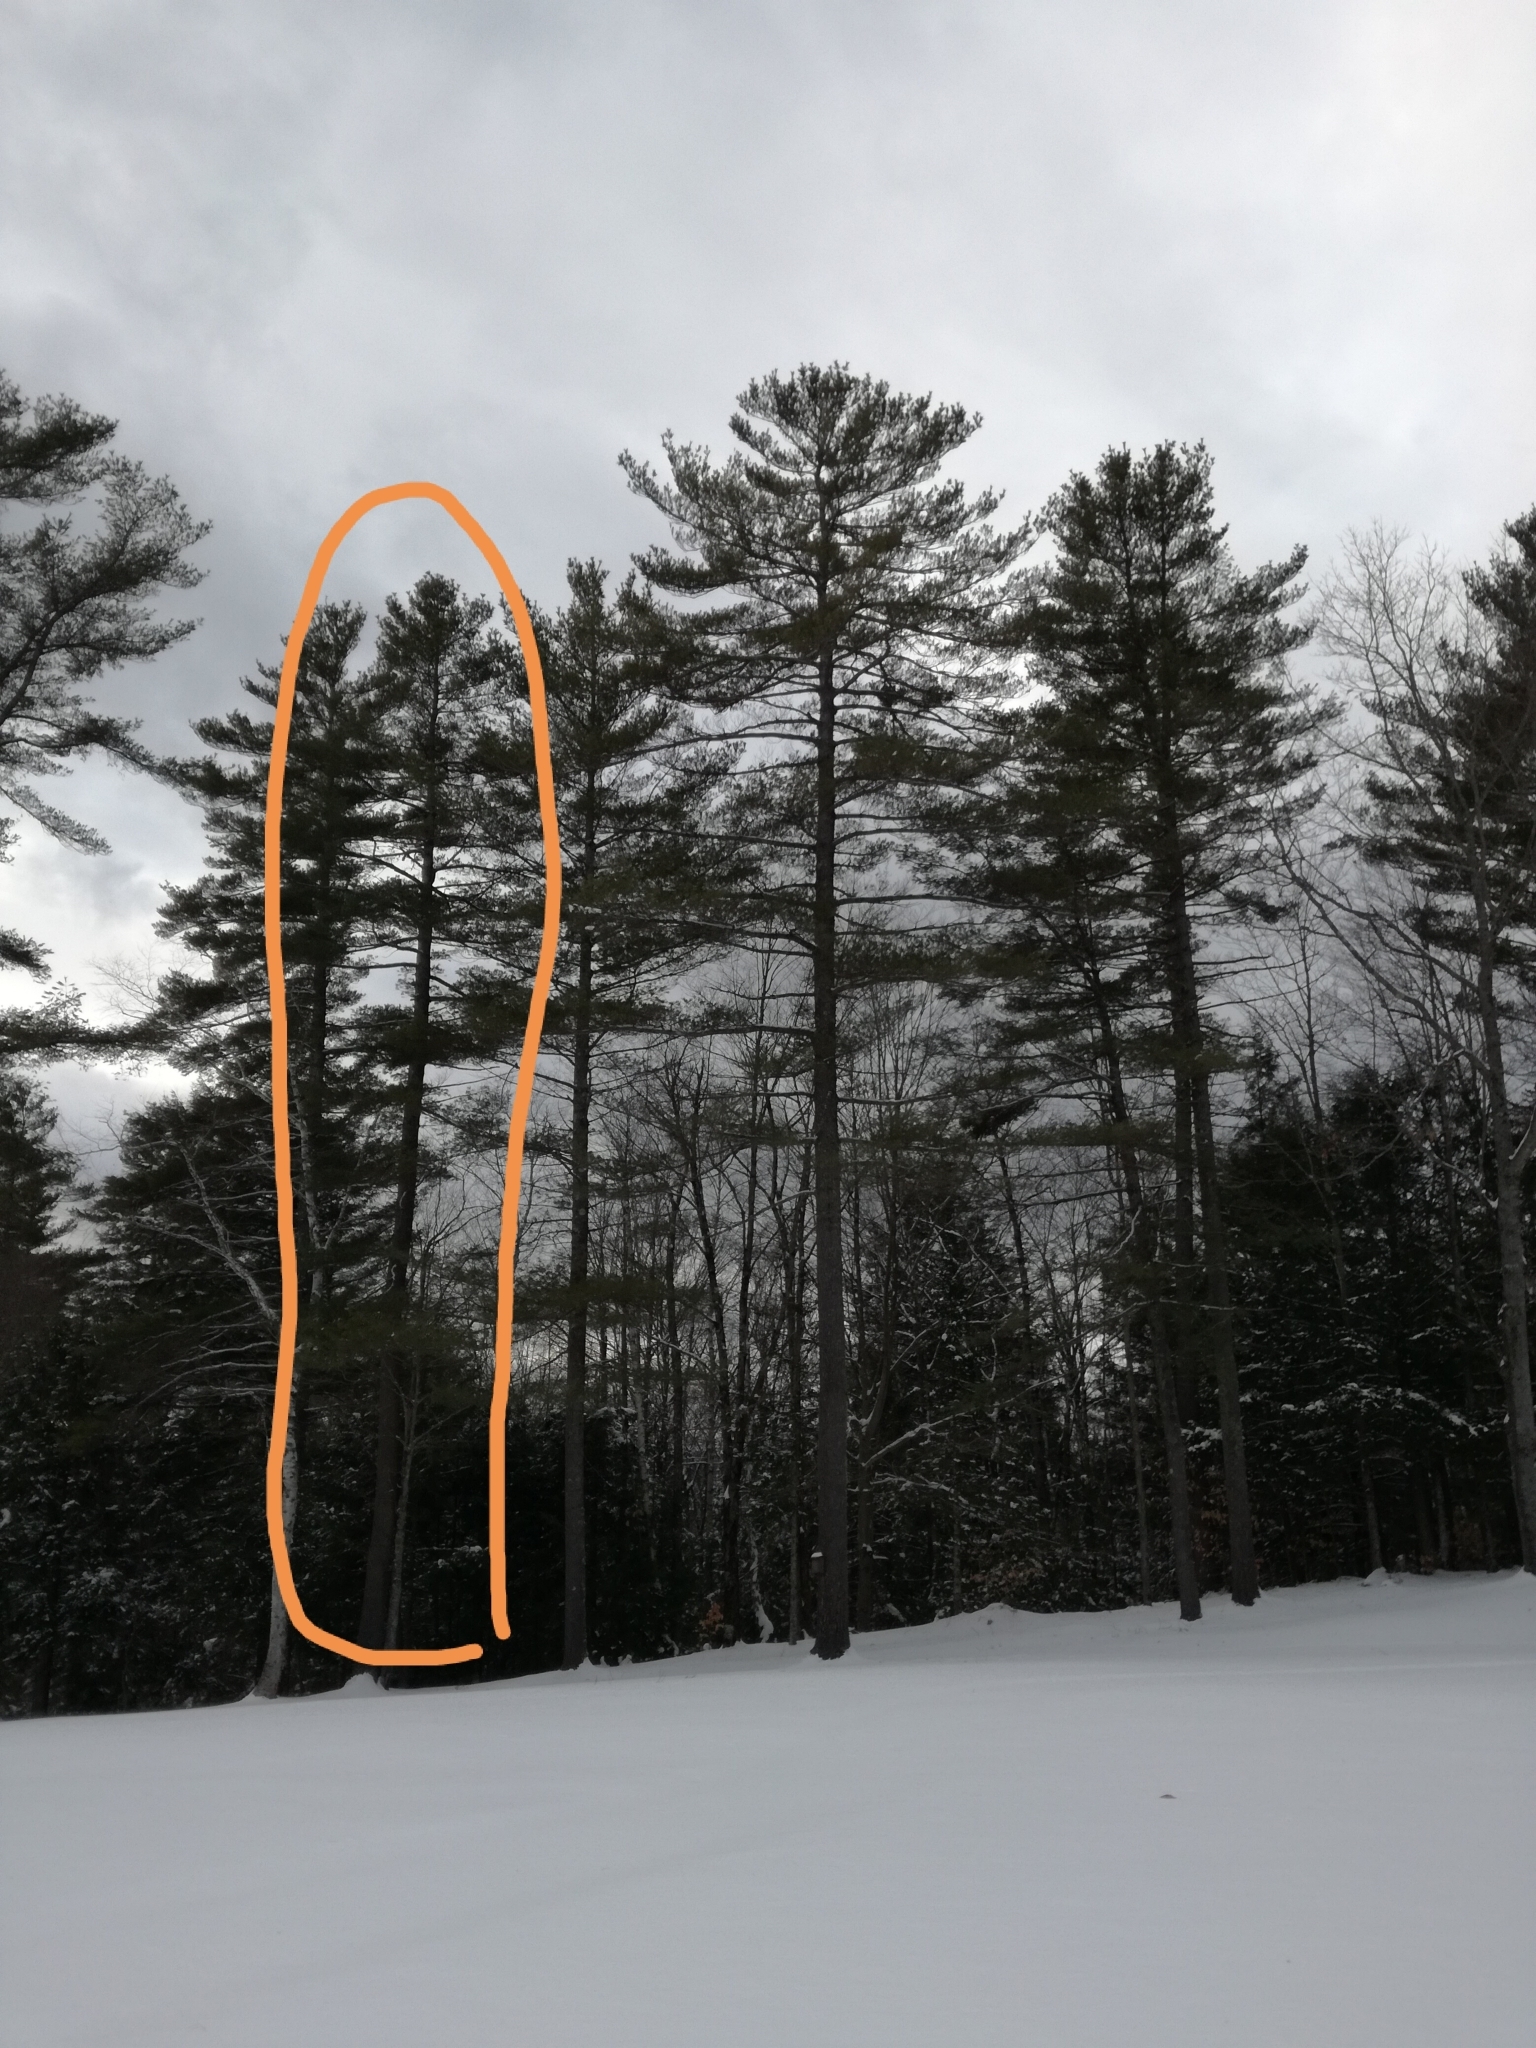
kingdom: Plantae
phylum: Tracheophyta
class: Pinopsida
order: Pinales
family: Pinaceae
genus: Pinus
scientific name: Pinus strobus
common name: Weymouth pine
